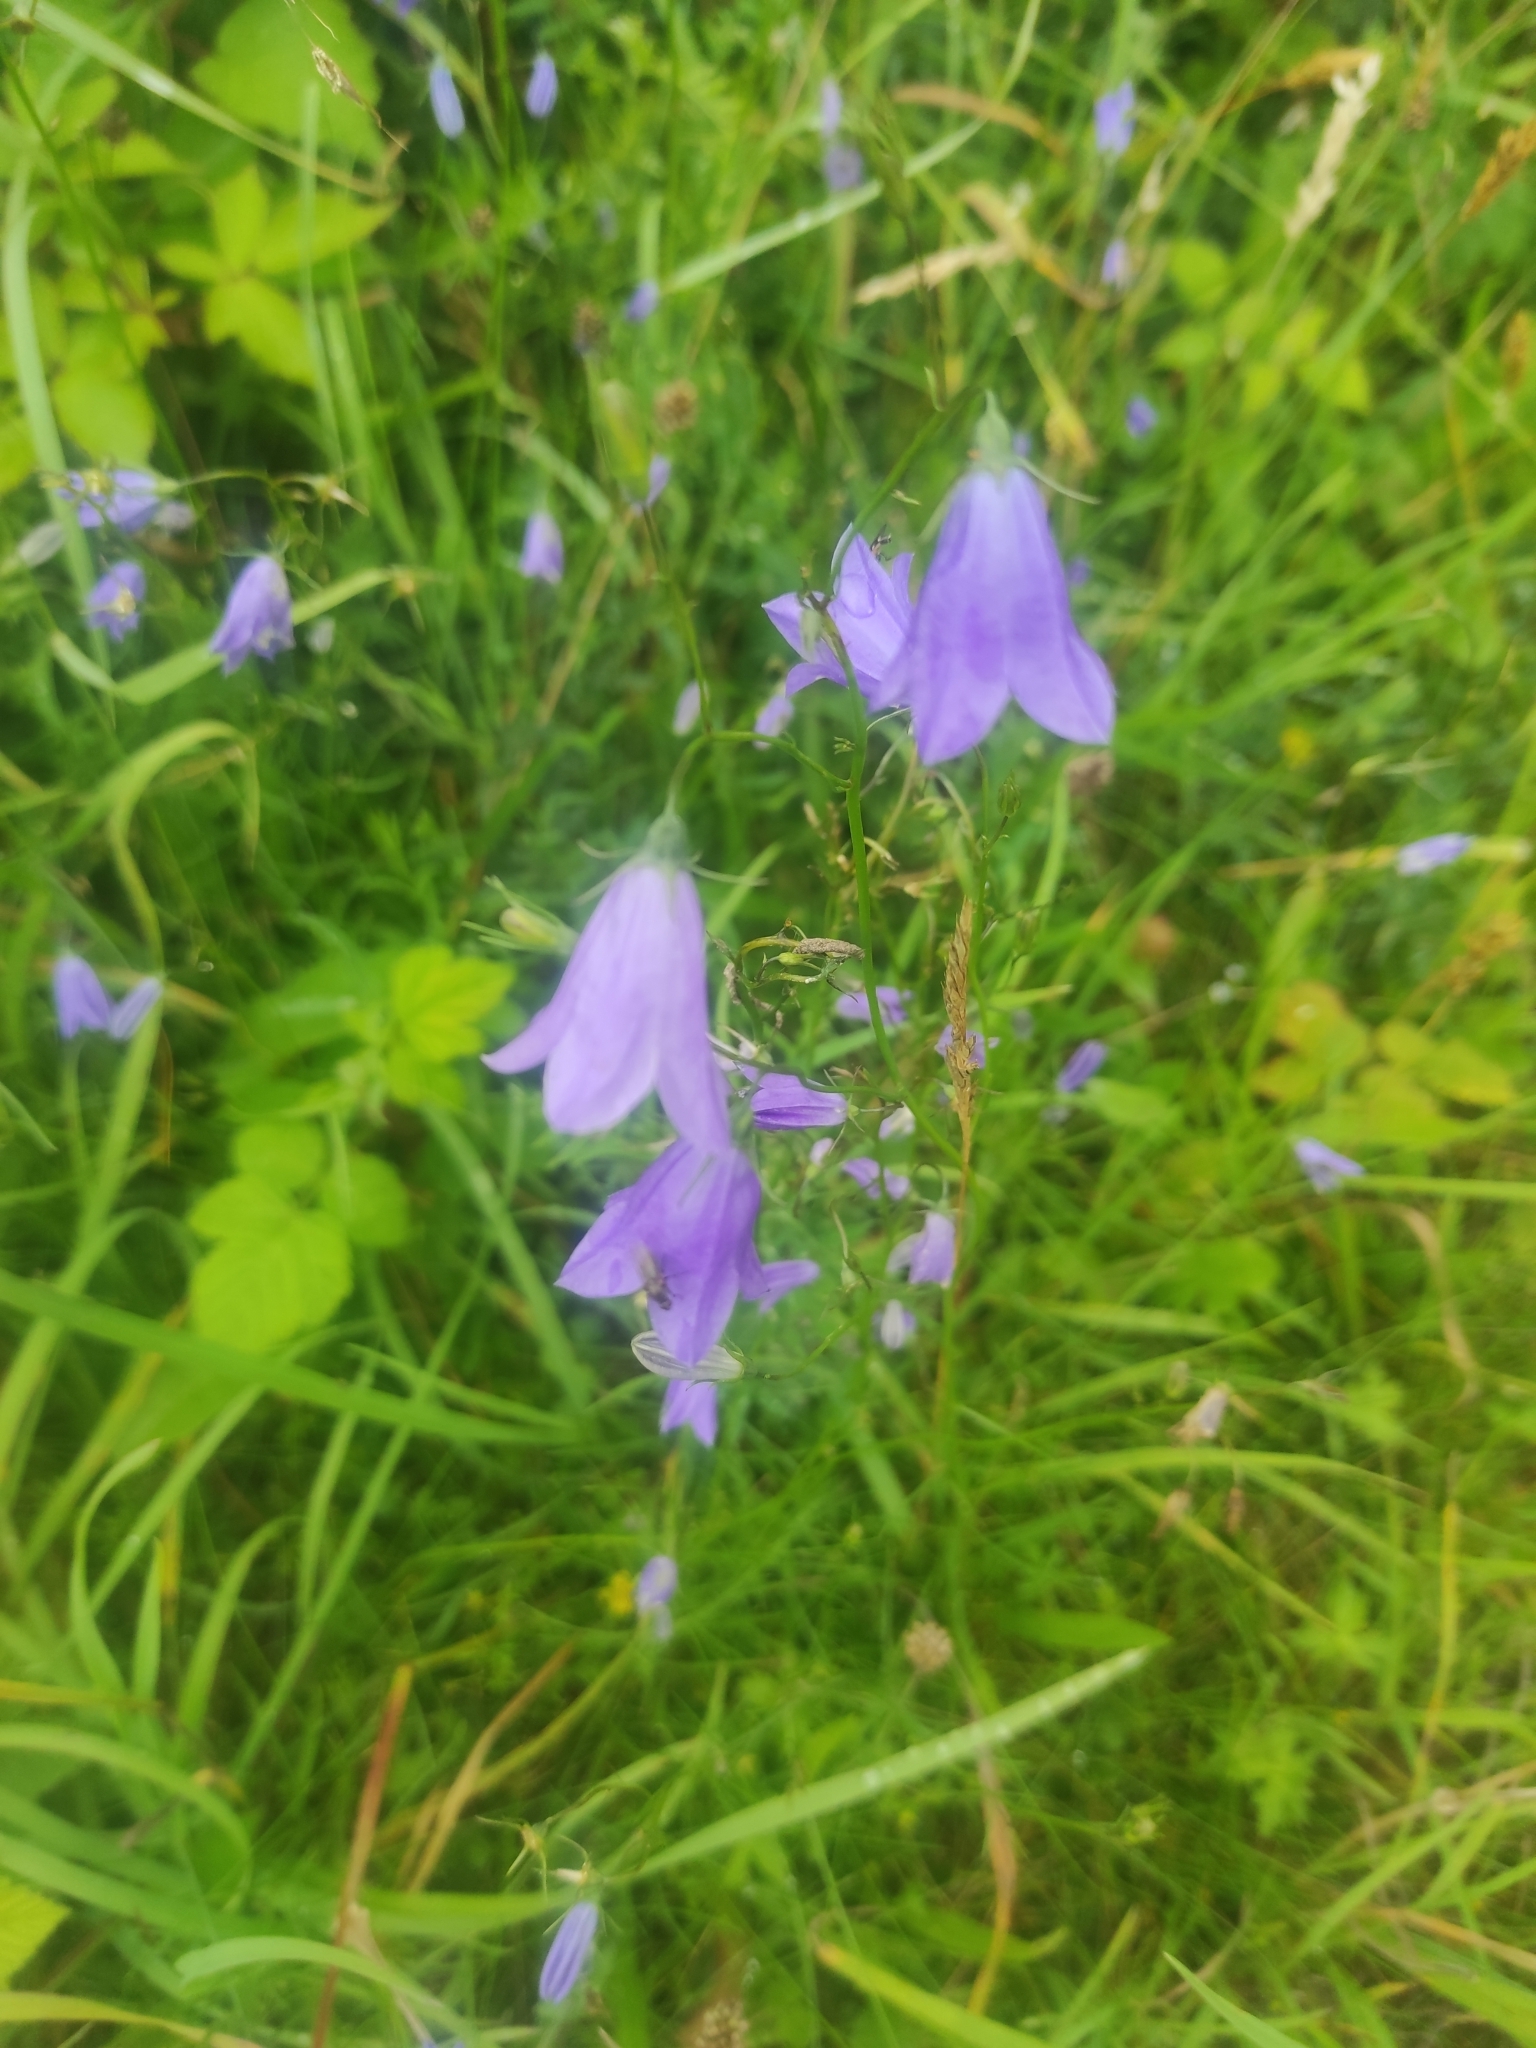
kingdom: Plantae
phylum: Tracheophyta
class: Magnoliopsida
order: Asterales
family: Campanulaceae
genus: Campanula
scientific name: Campanula rotundifolia
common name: Harebell
